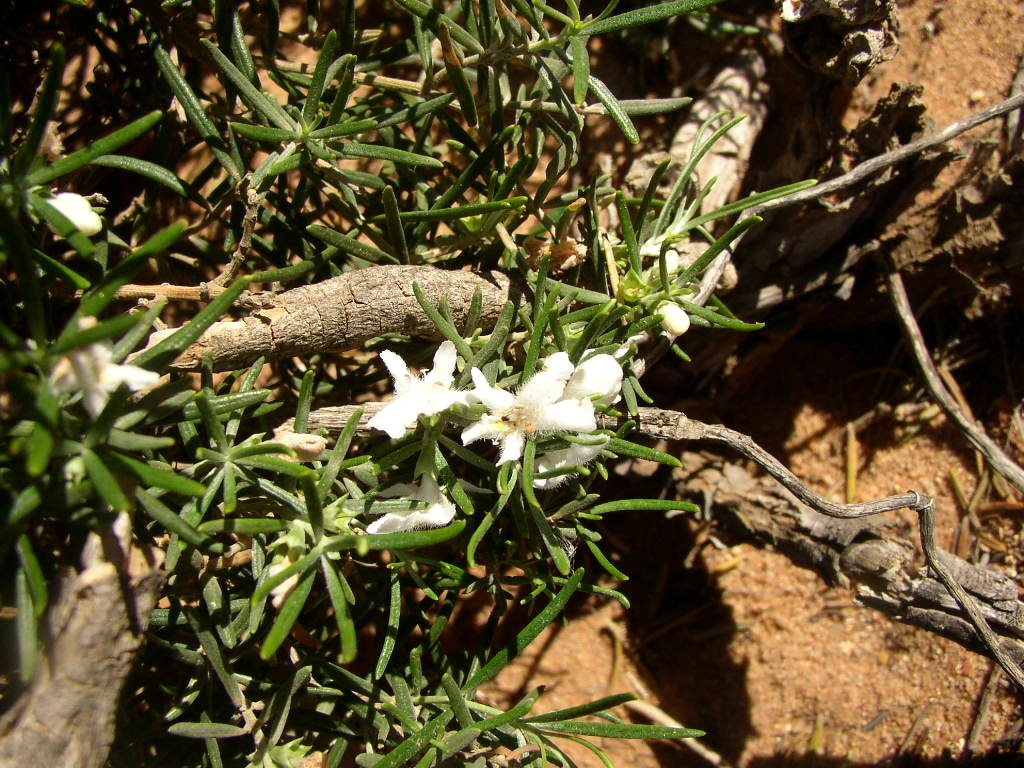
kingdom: Plantae
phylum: Tracheophyta
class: Magnoliopsida
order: Lamiales
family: Lamiaceae
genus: Westringia
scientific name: Westringia dampieri
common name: Shore westringia
